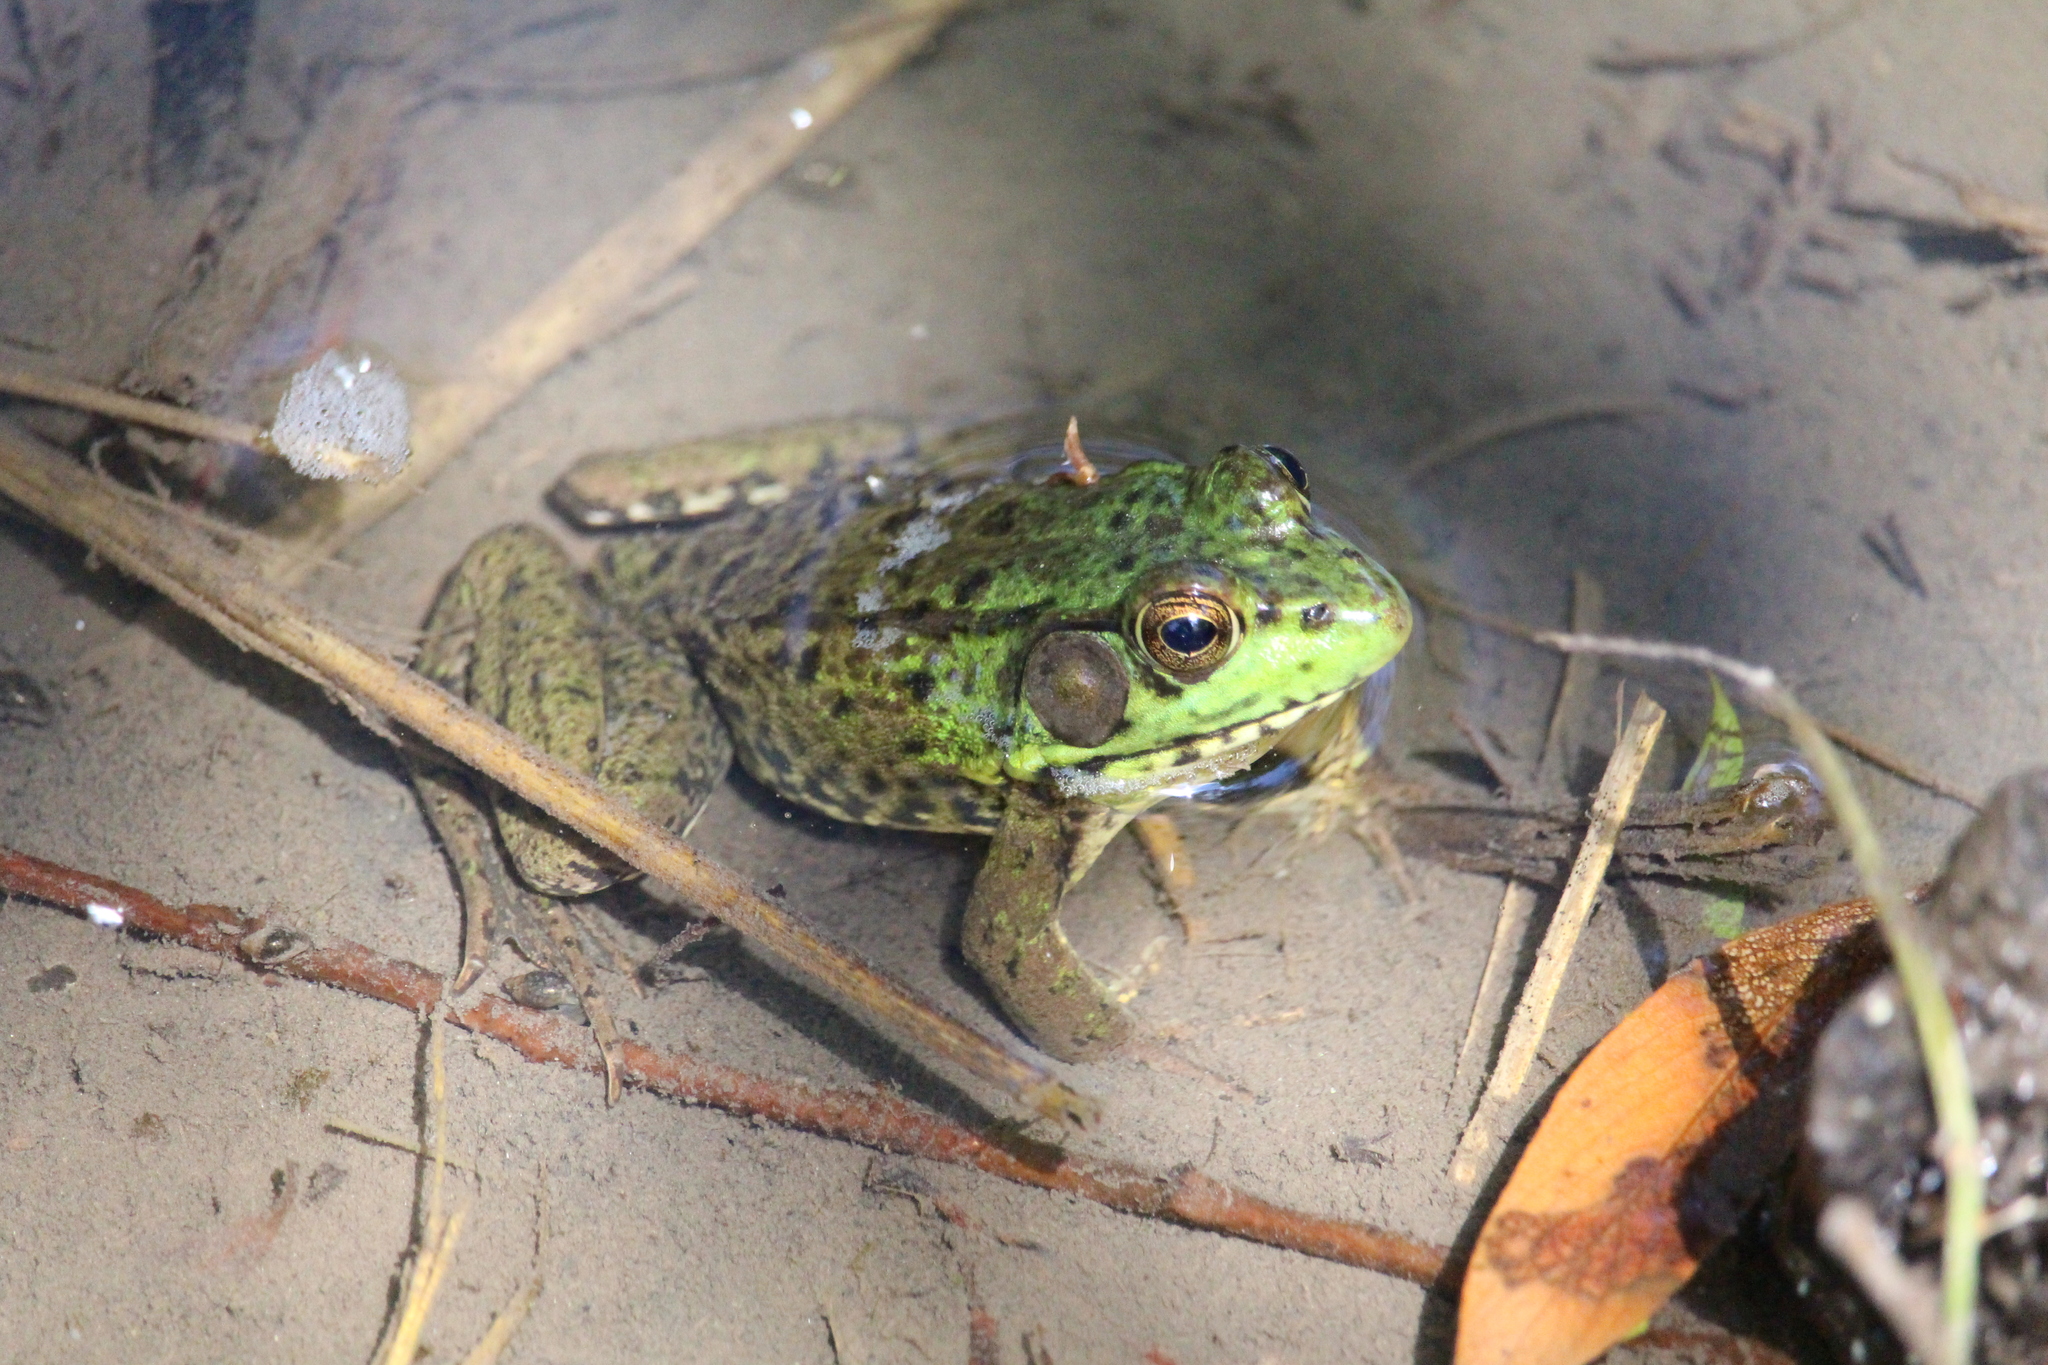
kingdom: Animalia
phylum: Chordata
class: Amphibia
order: Anura
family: Ranidae
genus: Lithobates
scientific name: Lithobates clamitans
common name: Green frog
